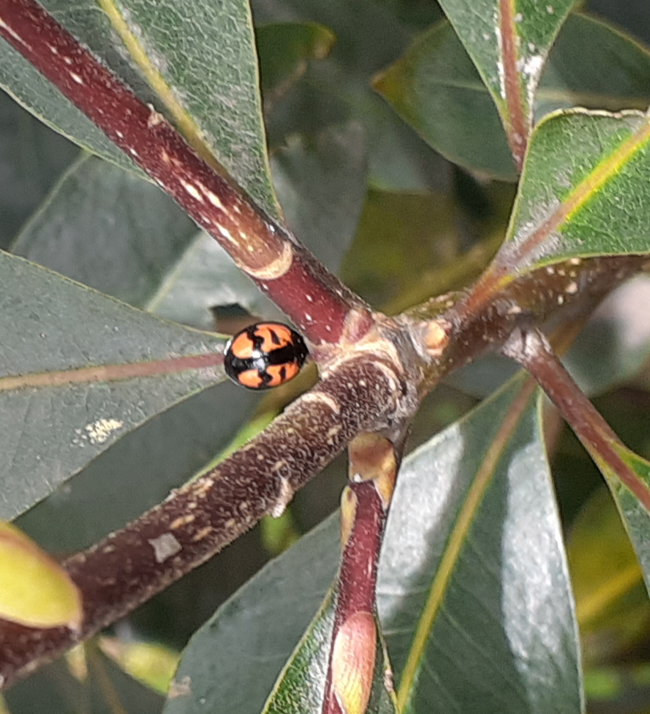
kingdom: Animalia
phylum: Arthropoda
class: Insecta
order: Coleoptera
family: Coccinellidae
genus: Cheilomenes
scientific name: Cheilomenes sexmaculata
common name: Ladybird beetle
